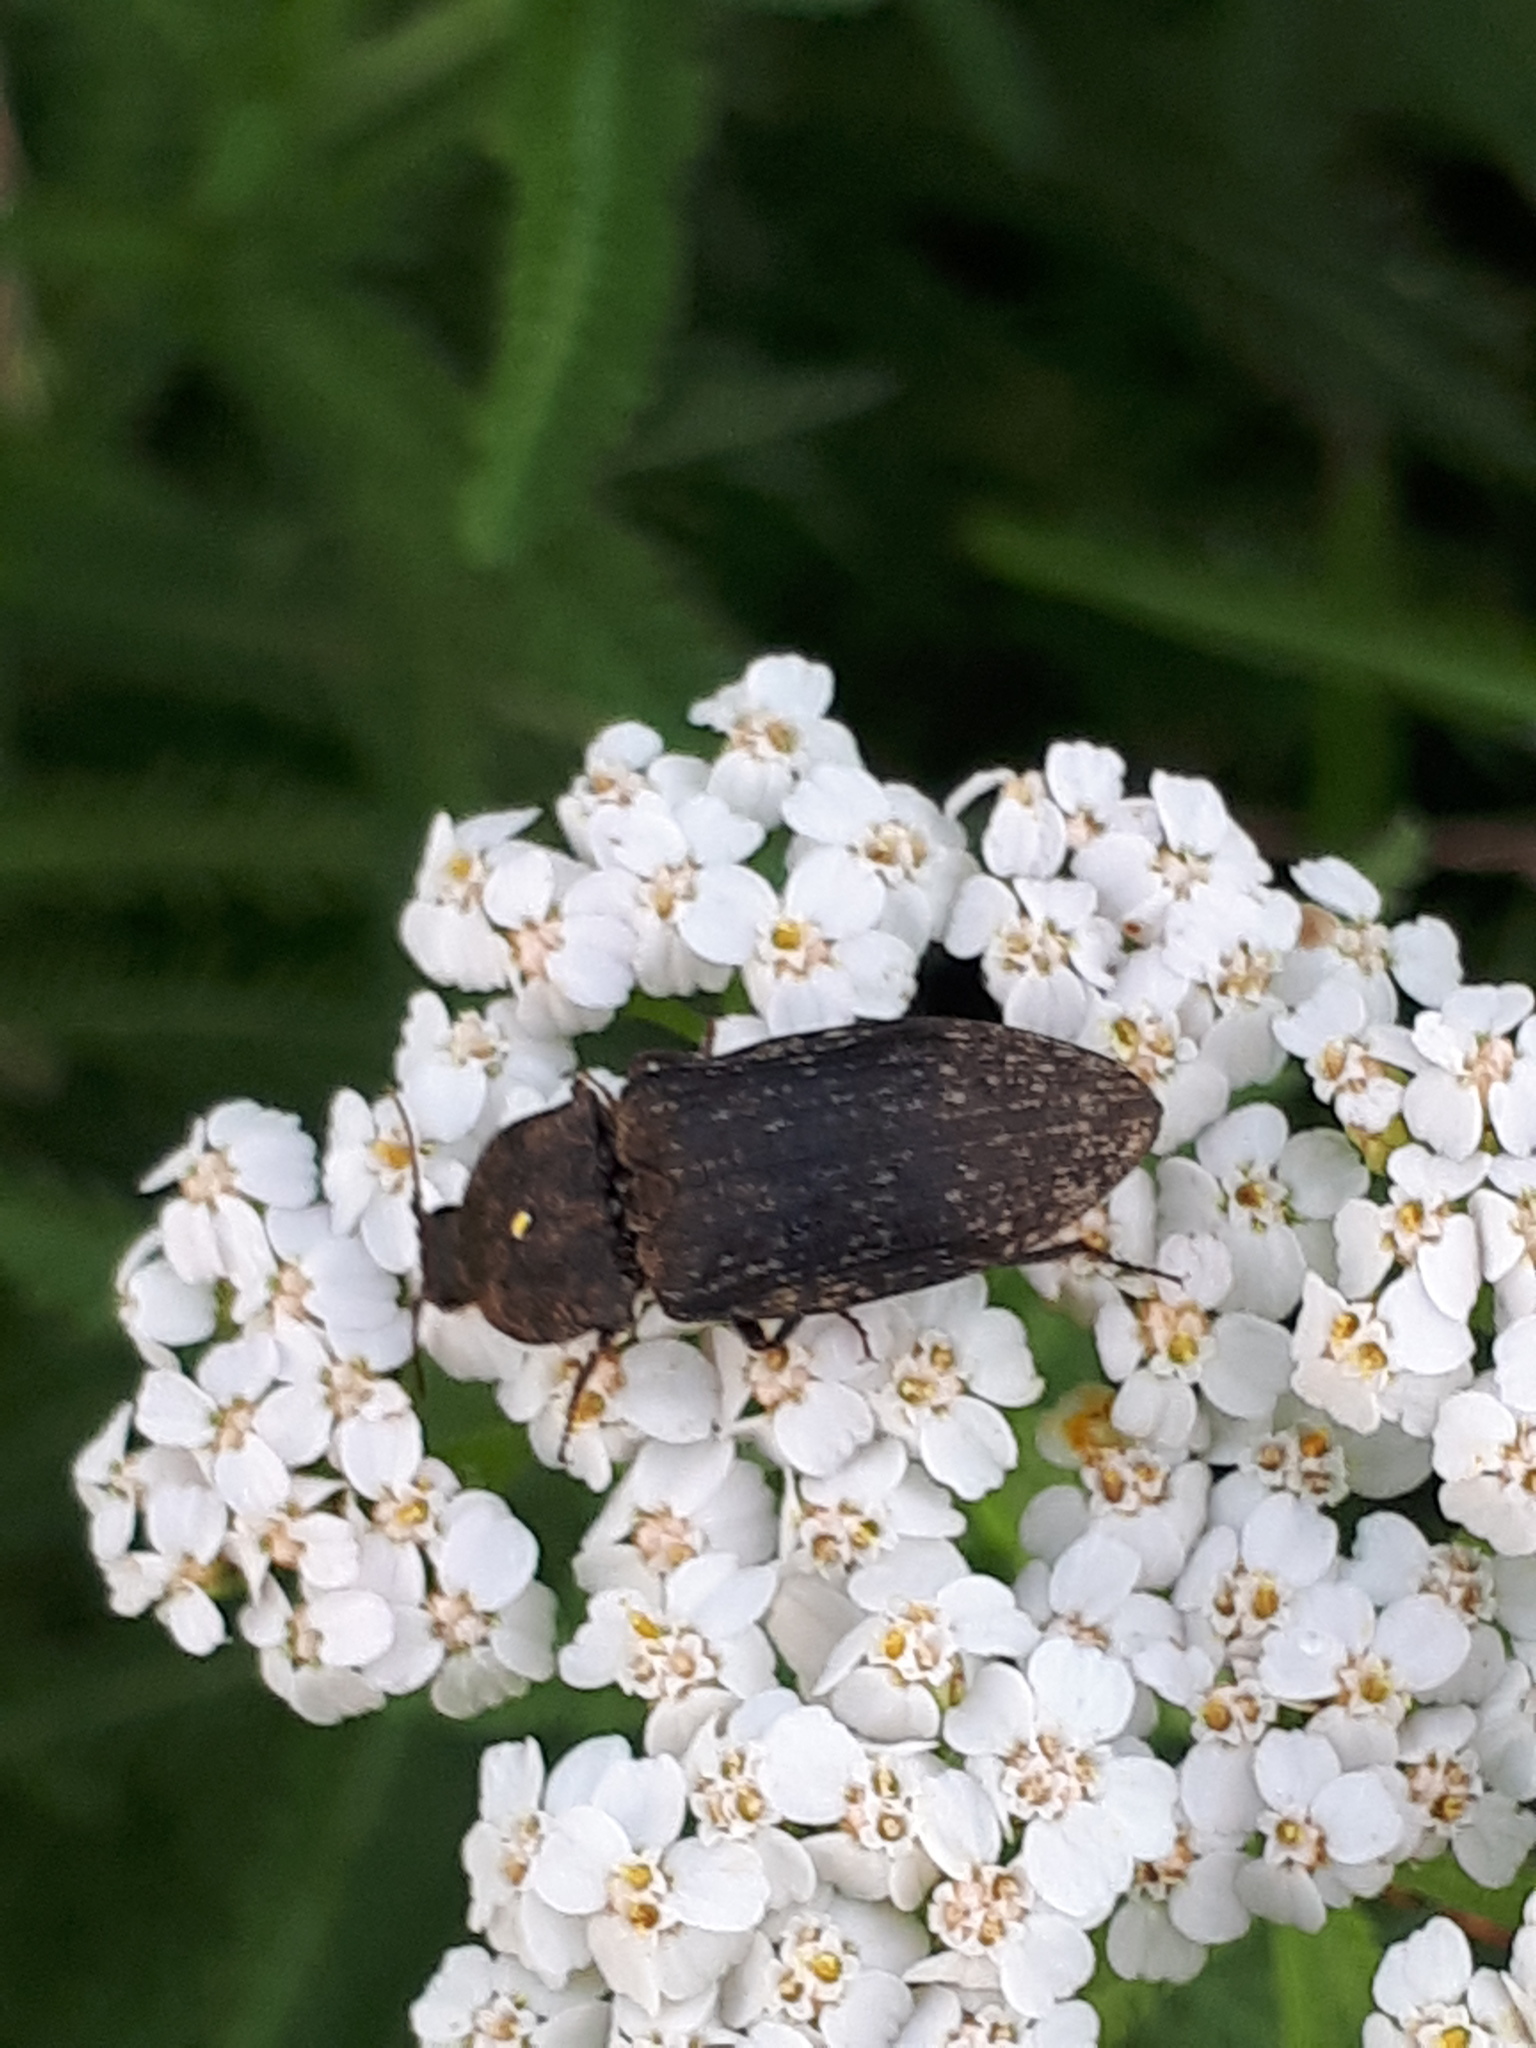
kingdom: Animalia
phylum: Arthropoda
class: Insecta
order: Coleoptera
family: Elateridae
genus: Agrypnus
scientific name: Agrypnus murinus
